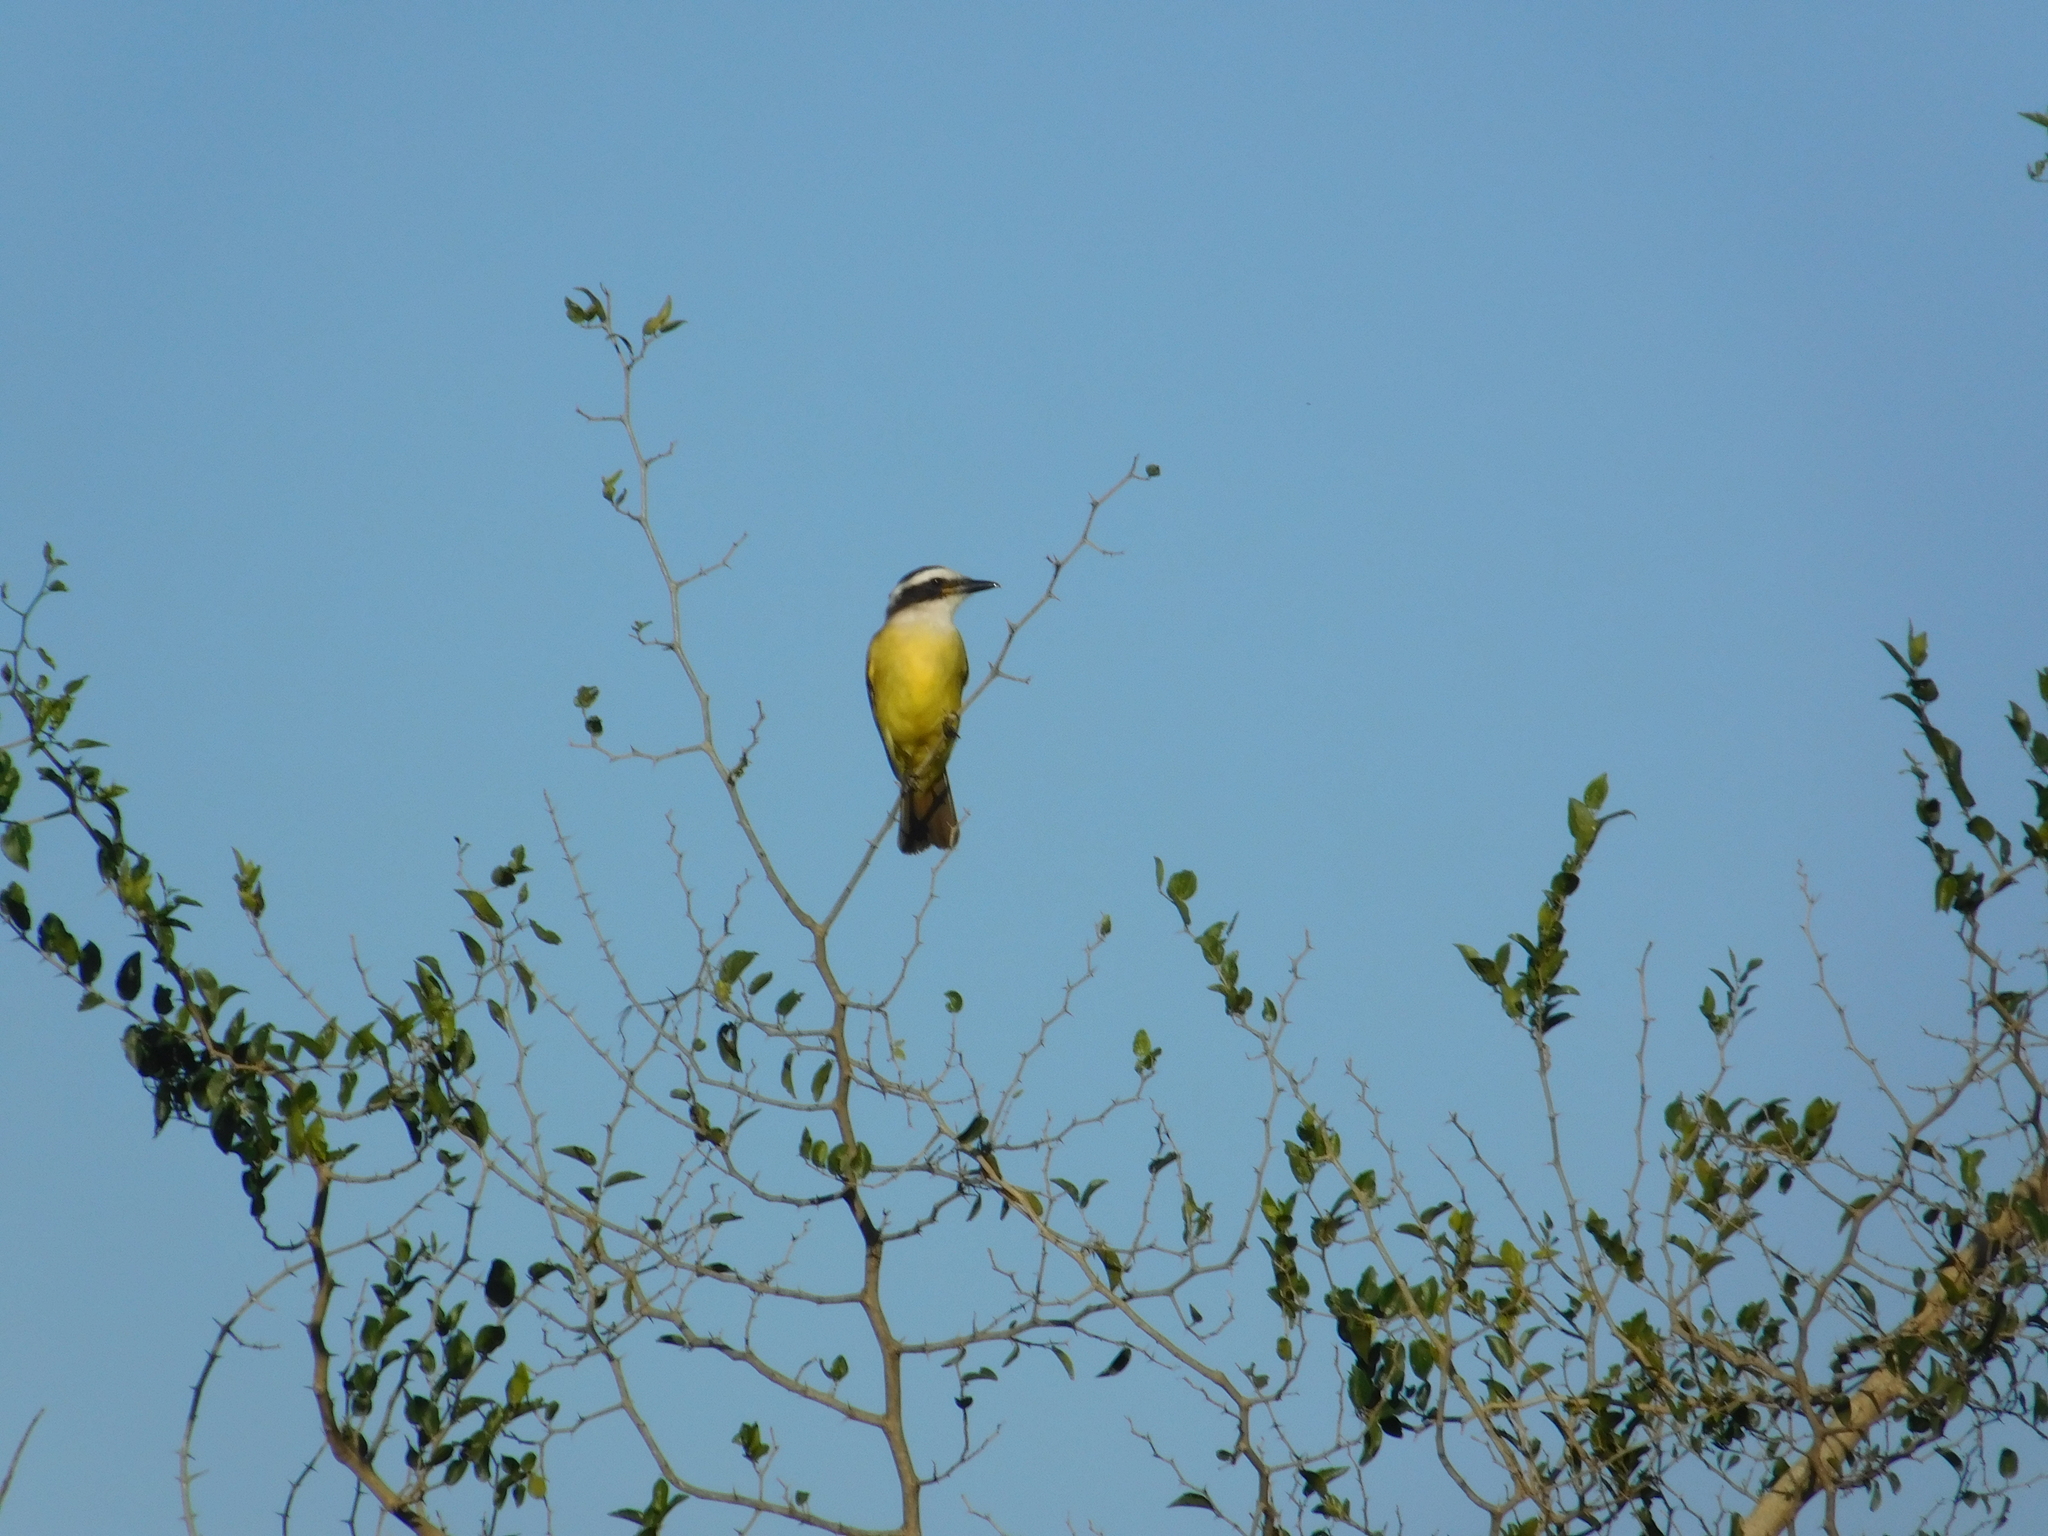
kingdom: Animalia
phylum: Chordata
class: Aves
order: Passeriformes
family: Tyrannidae
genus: Pitangus
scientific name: Pitangus sulphuratus
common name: Great kiskadee
